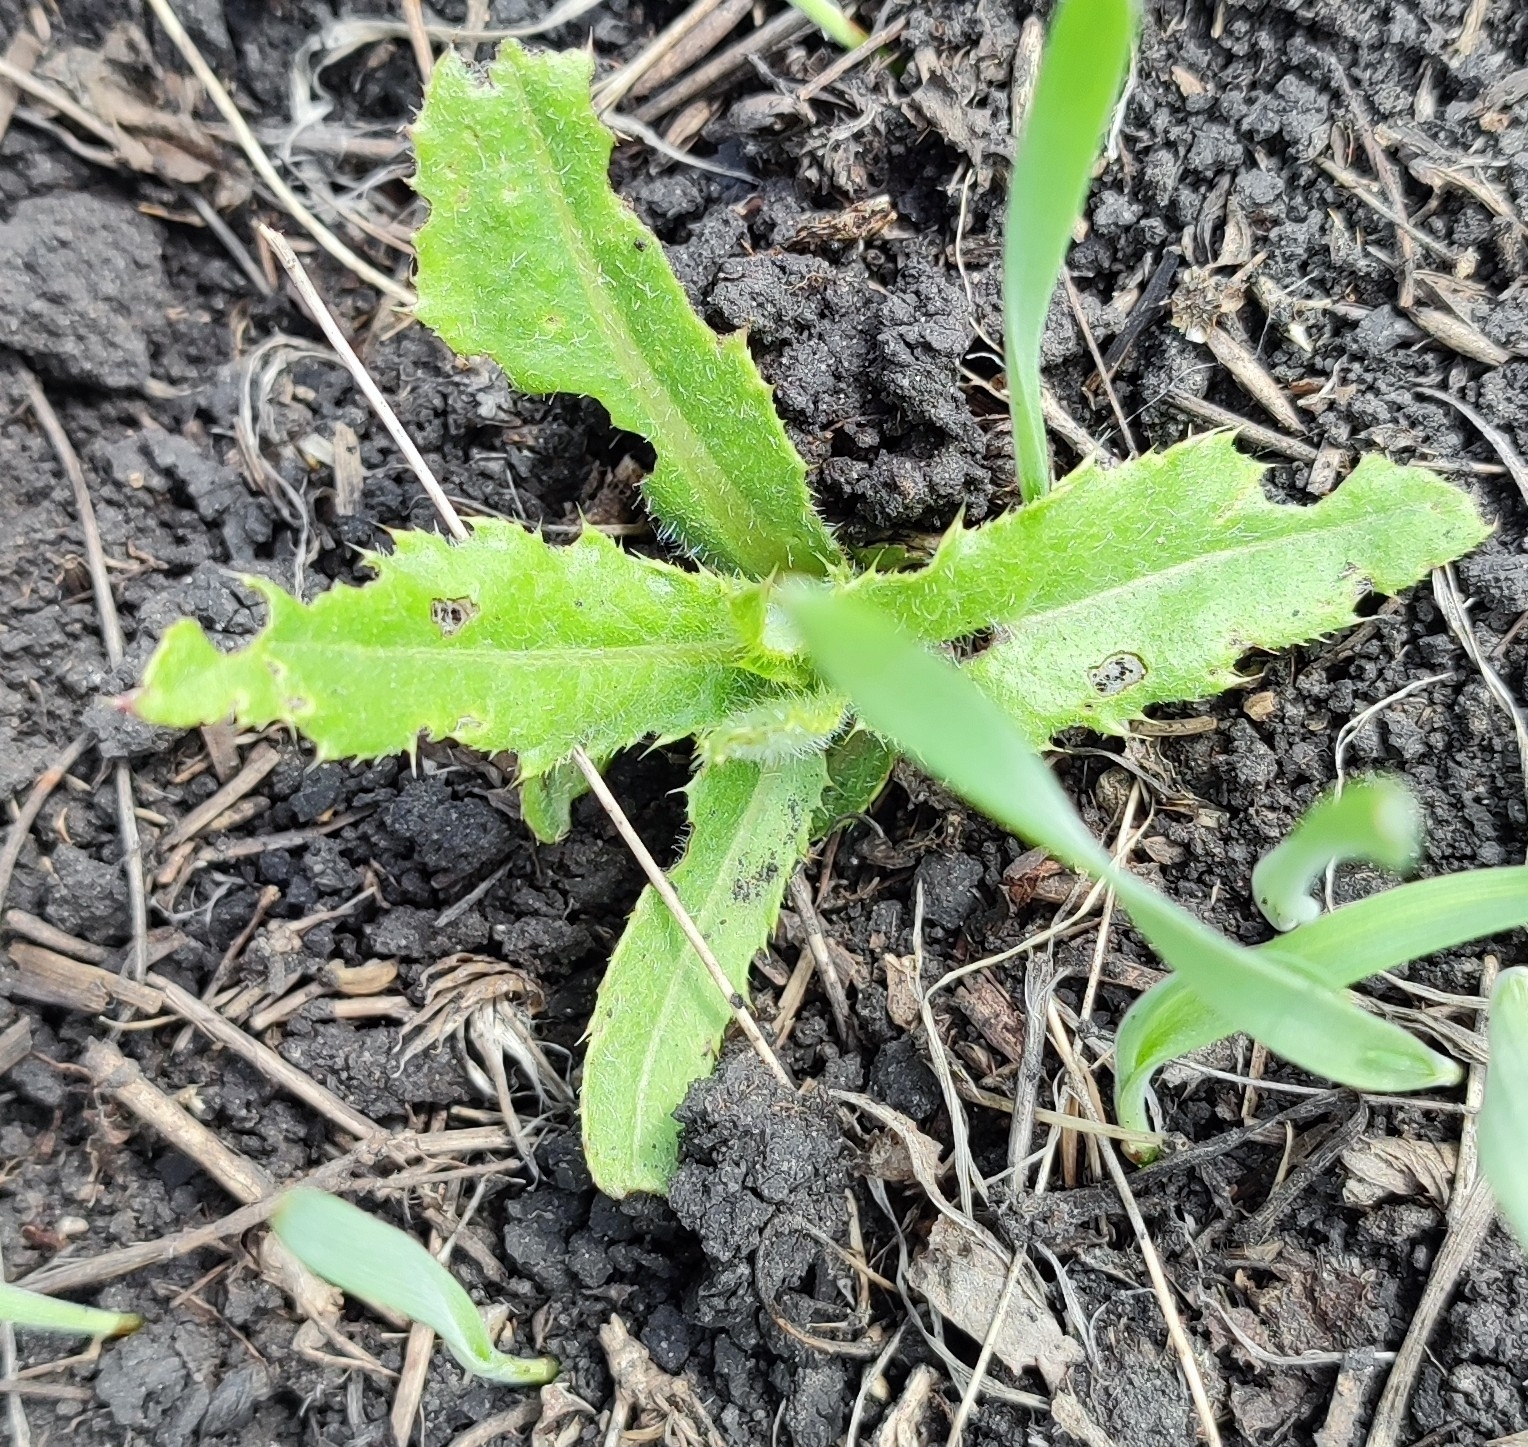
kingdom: Plantae
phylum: Tracheophyta
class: Magnoliopsida
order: Asterales
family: Asteraceae
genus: Cirsium
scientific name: Cirsium arvense
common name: Creeping thistle
